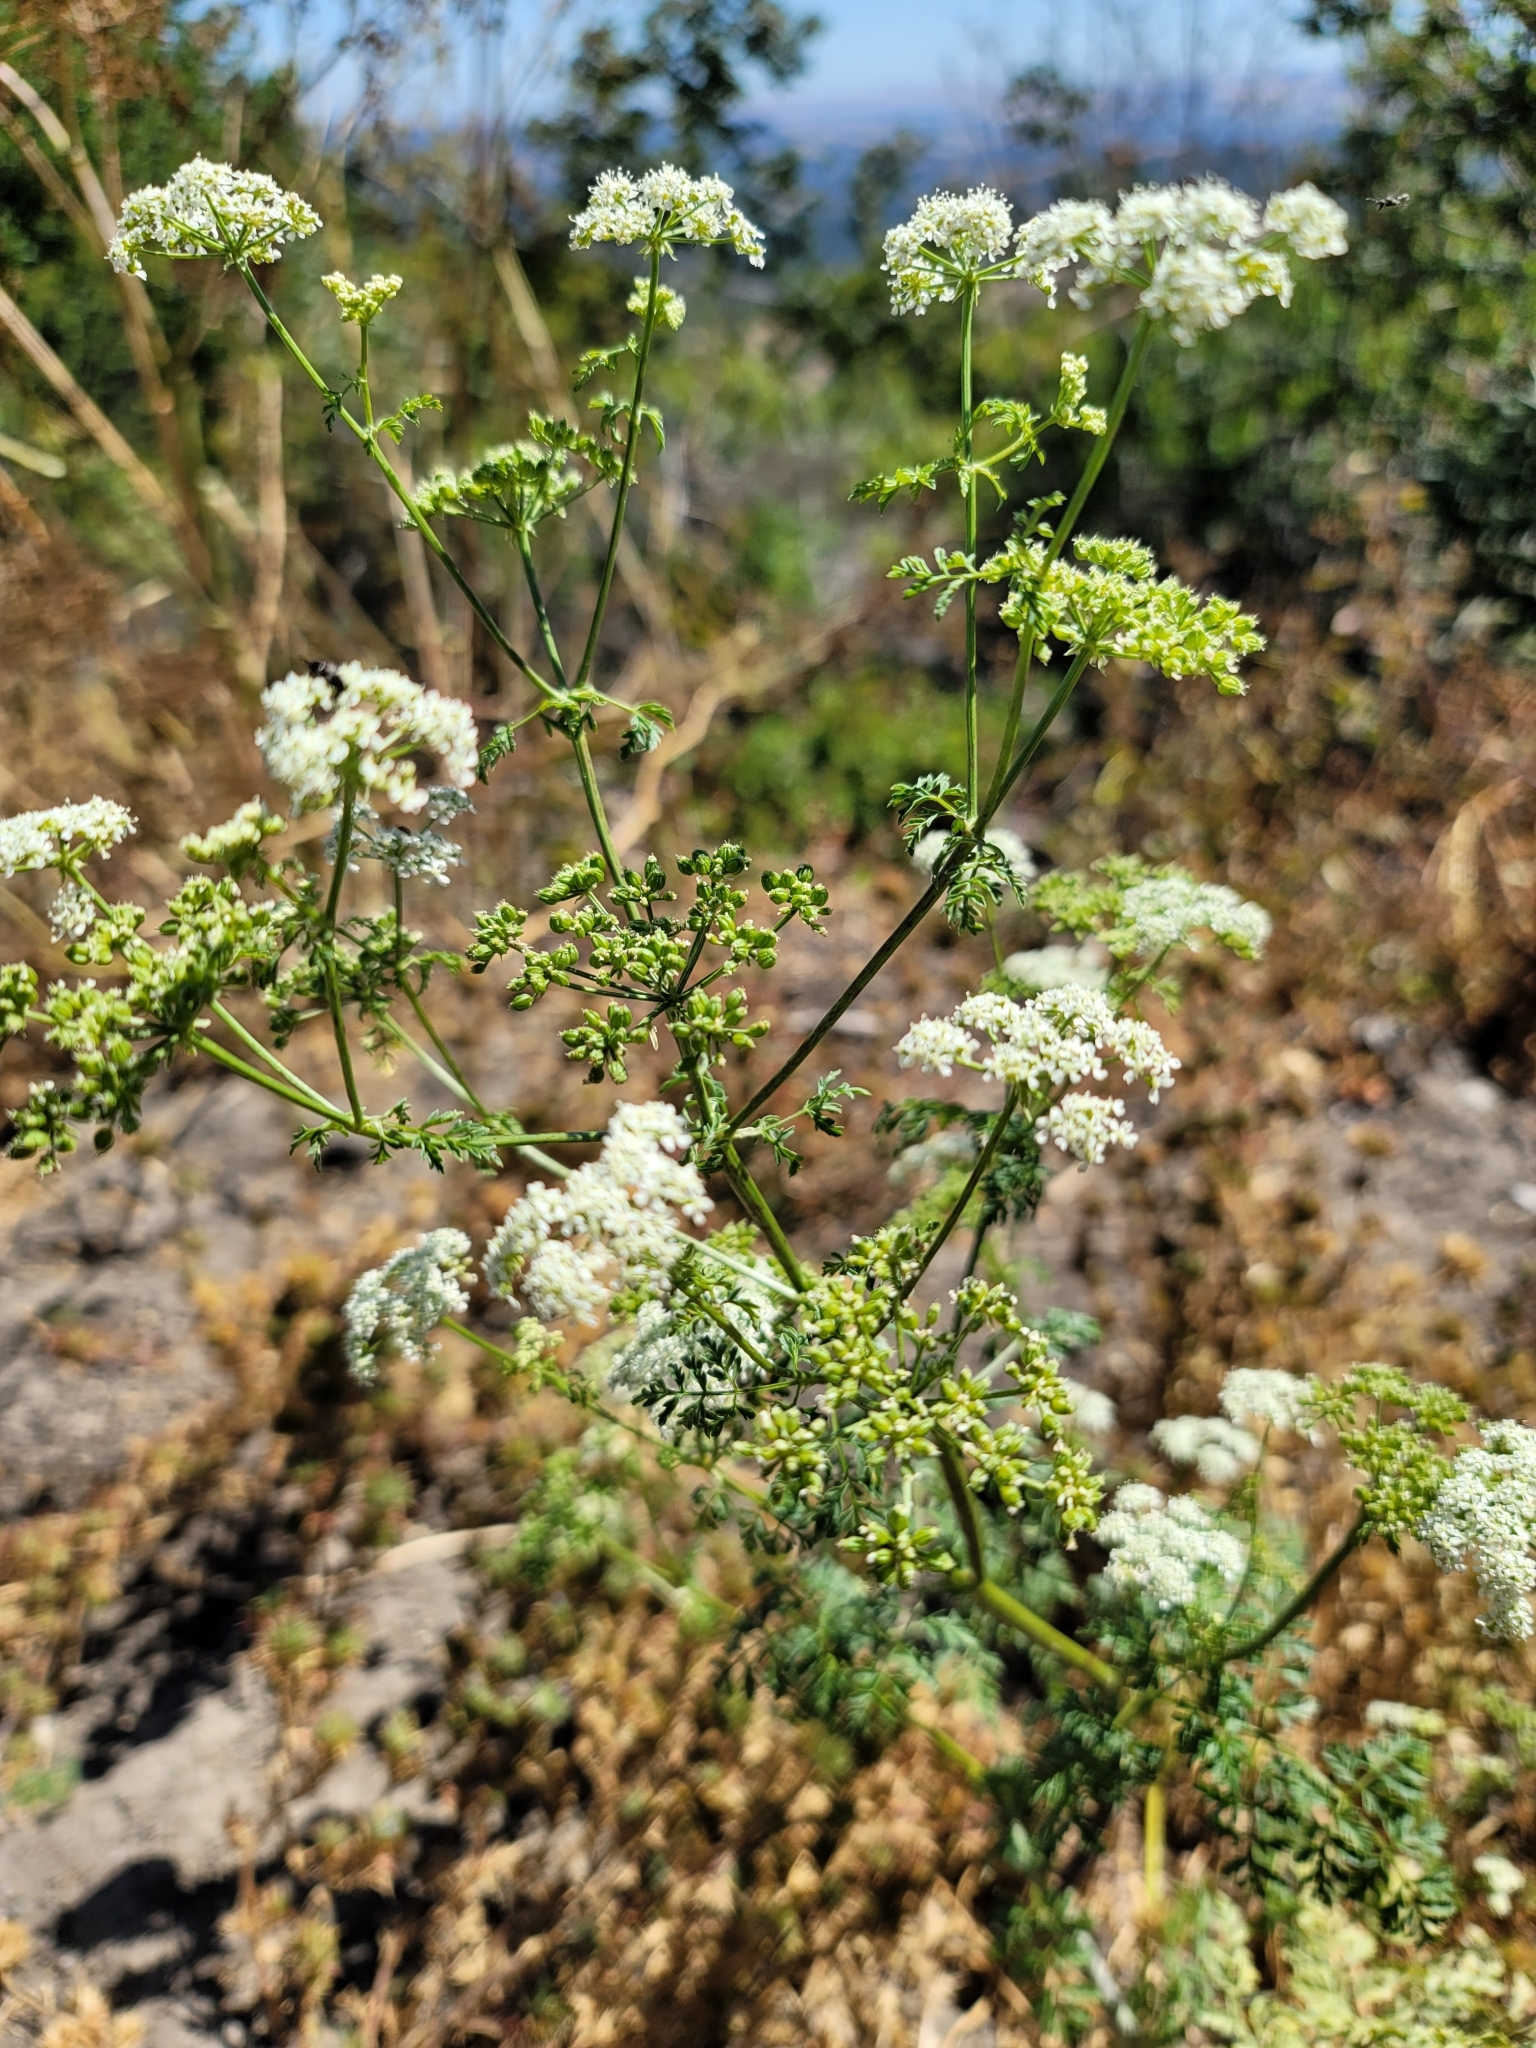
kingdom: Plantae
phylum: Tracheophyta
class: Magnoliopsida
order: Apiales
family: Apiaceae
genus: Conium
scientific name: Conium maculatum
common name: Hemlock
